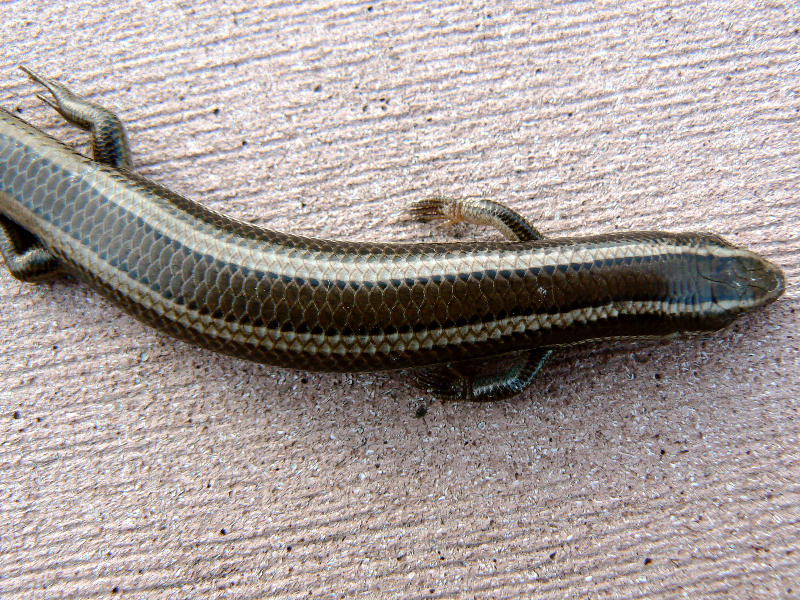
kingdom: Animalia
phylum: Chordata
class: Squamata
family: Scincidae
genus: Plestiodon
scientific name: Plestiodon skiltonianus
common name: Coronado island skink [interparietalis]
